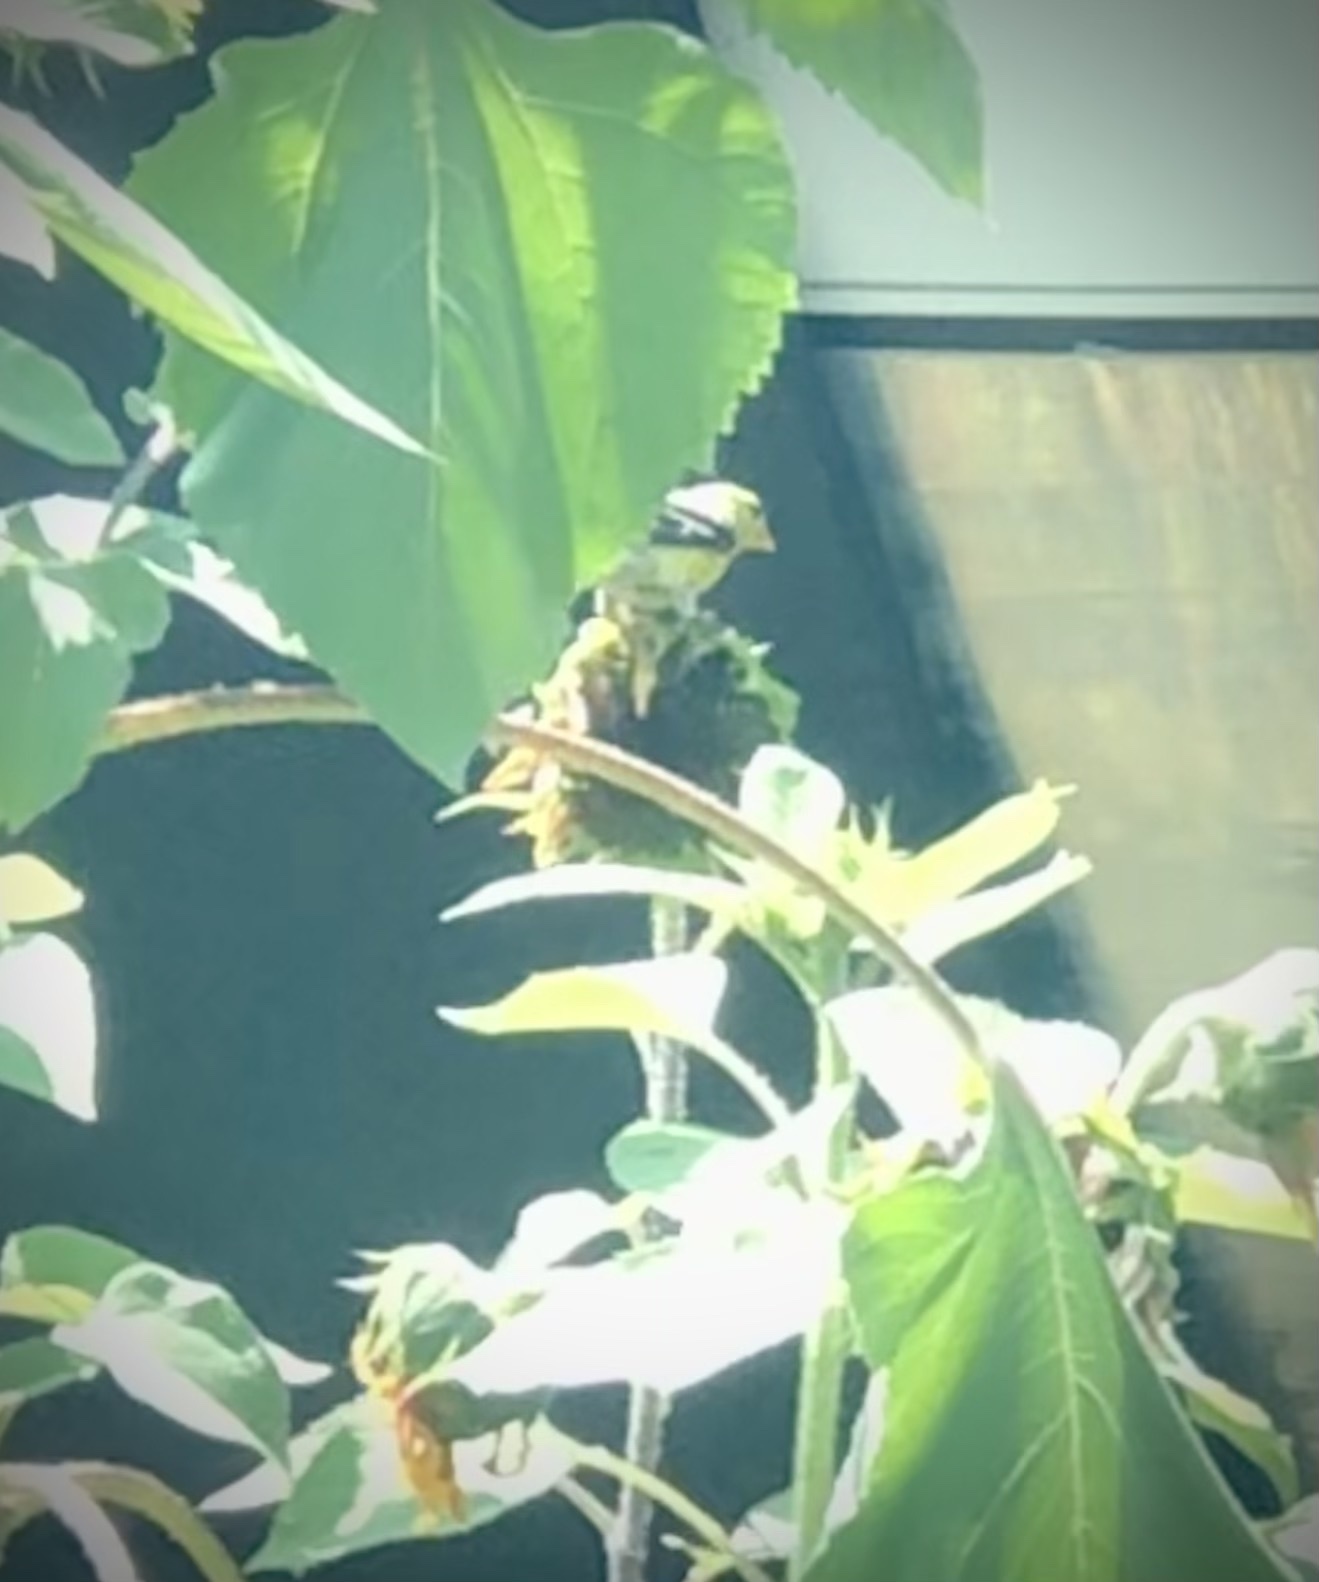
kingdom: Animalia
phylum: Chordata
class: Aves
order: Passeriformes
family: Fringillidae
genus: Spinus
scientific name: Spinus tristis
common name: American goldfinch
